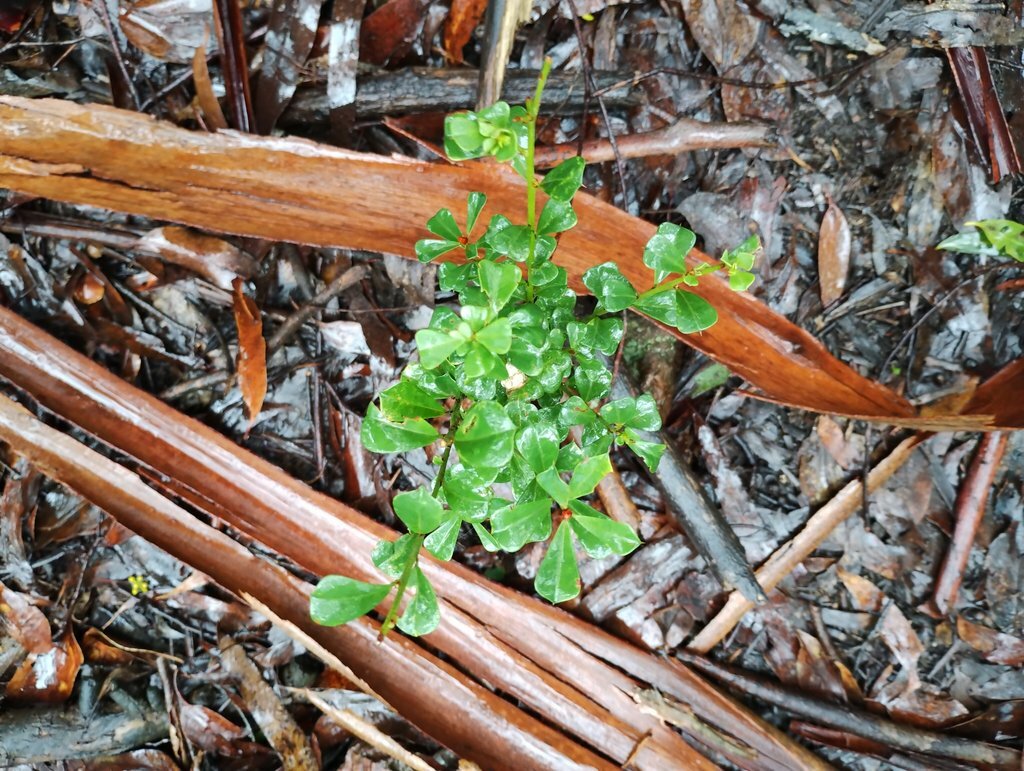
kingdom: Plantae
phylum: Tracheophyta
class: Magnoliopsida
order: Fabales
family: Fabaceae
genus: Pultenaea
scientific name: Pultenaea daphnoides
